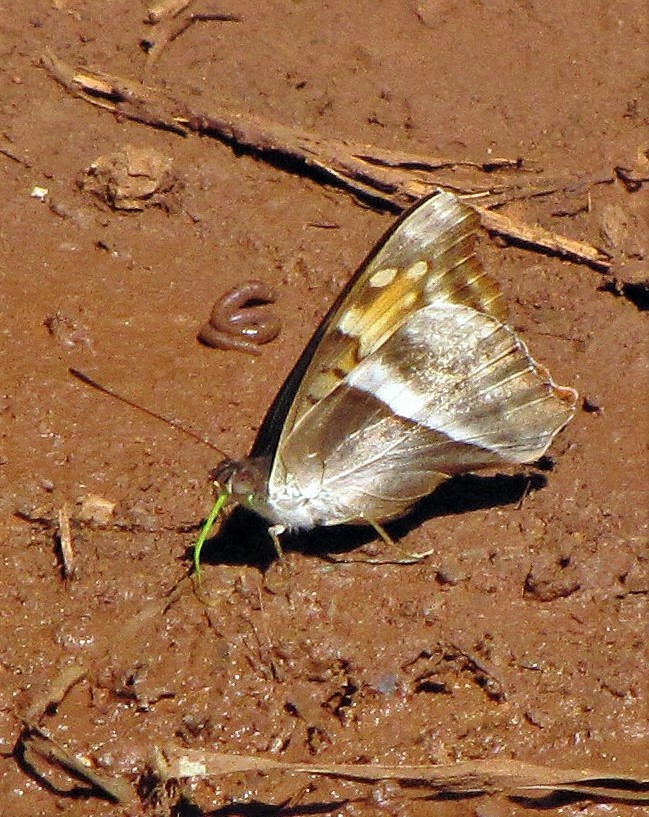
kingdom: Animalia
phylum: Arthropoda
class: Insecta
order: Lepidoptera
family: Nymphalidae
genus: Doxocopa
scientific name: Doxocopa laurentia
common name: Turquoise emperor
